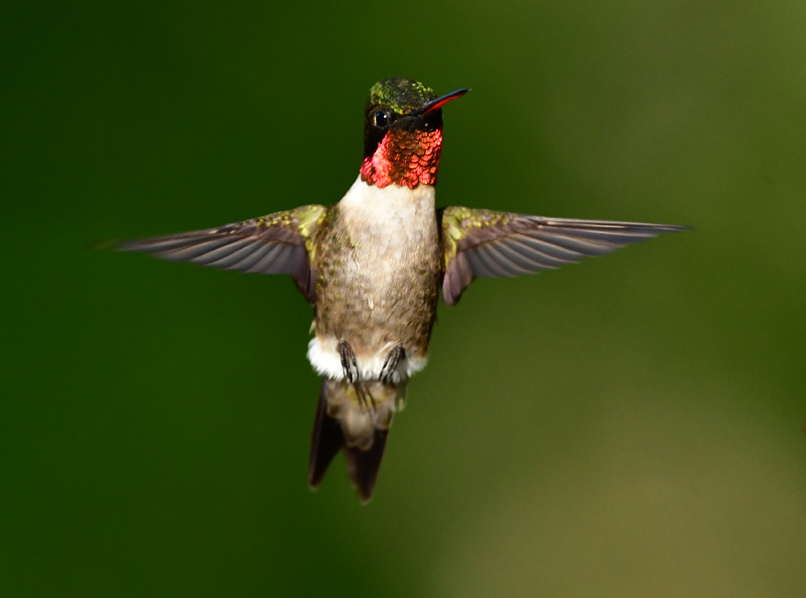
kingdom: Animalia
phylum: Chordata
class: Aves
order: Apodiformes
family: Trochilidae
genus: Archilochus
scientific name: Archilochus colubris
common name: Ruby-throated hummingbird
